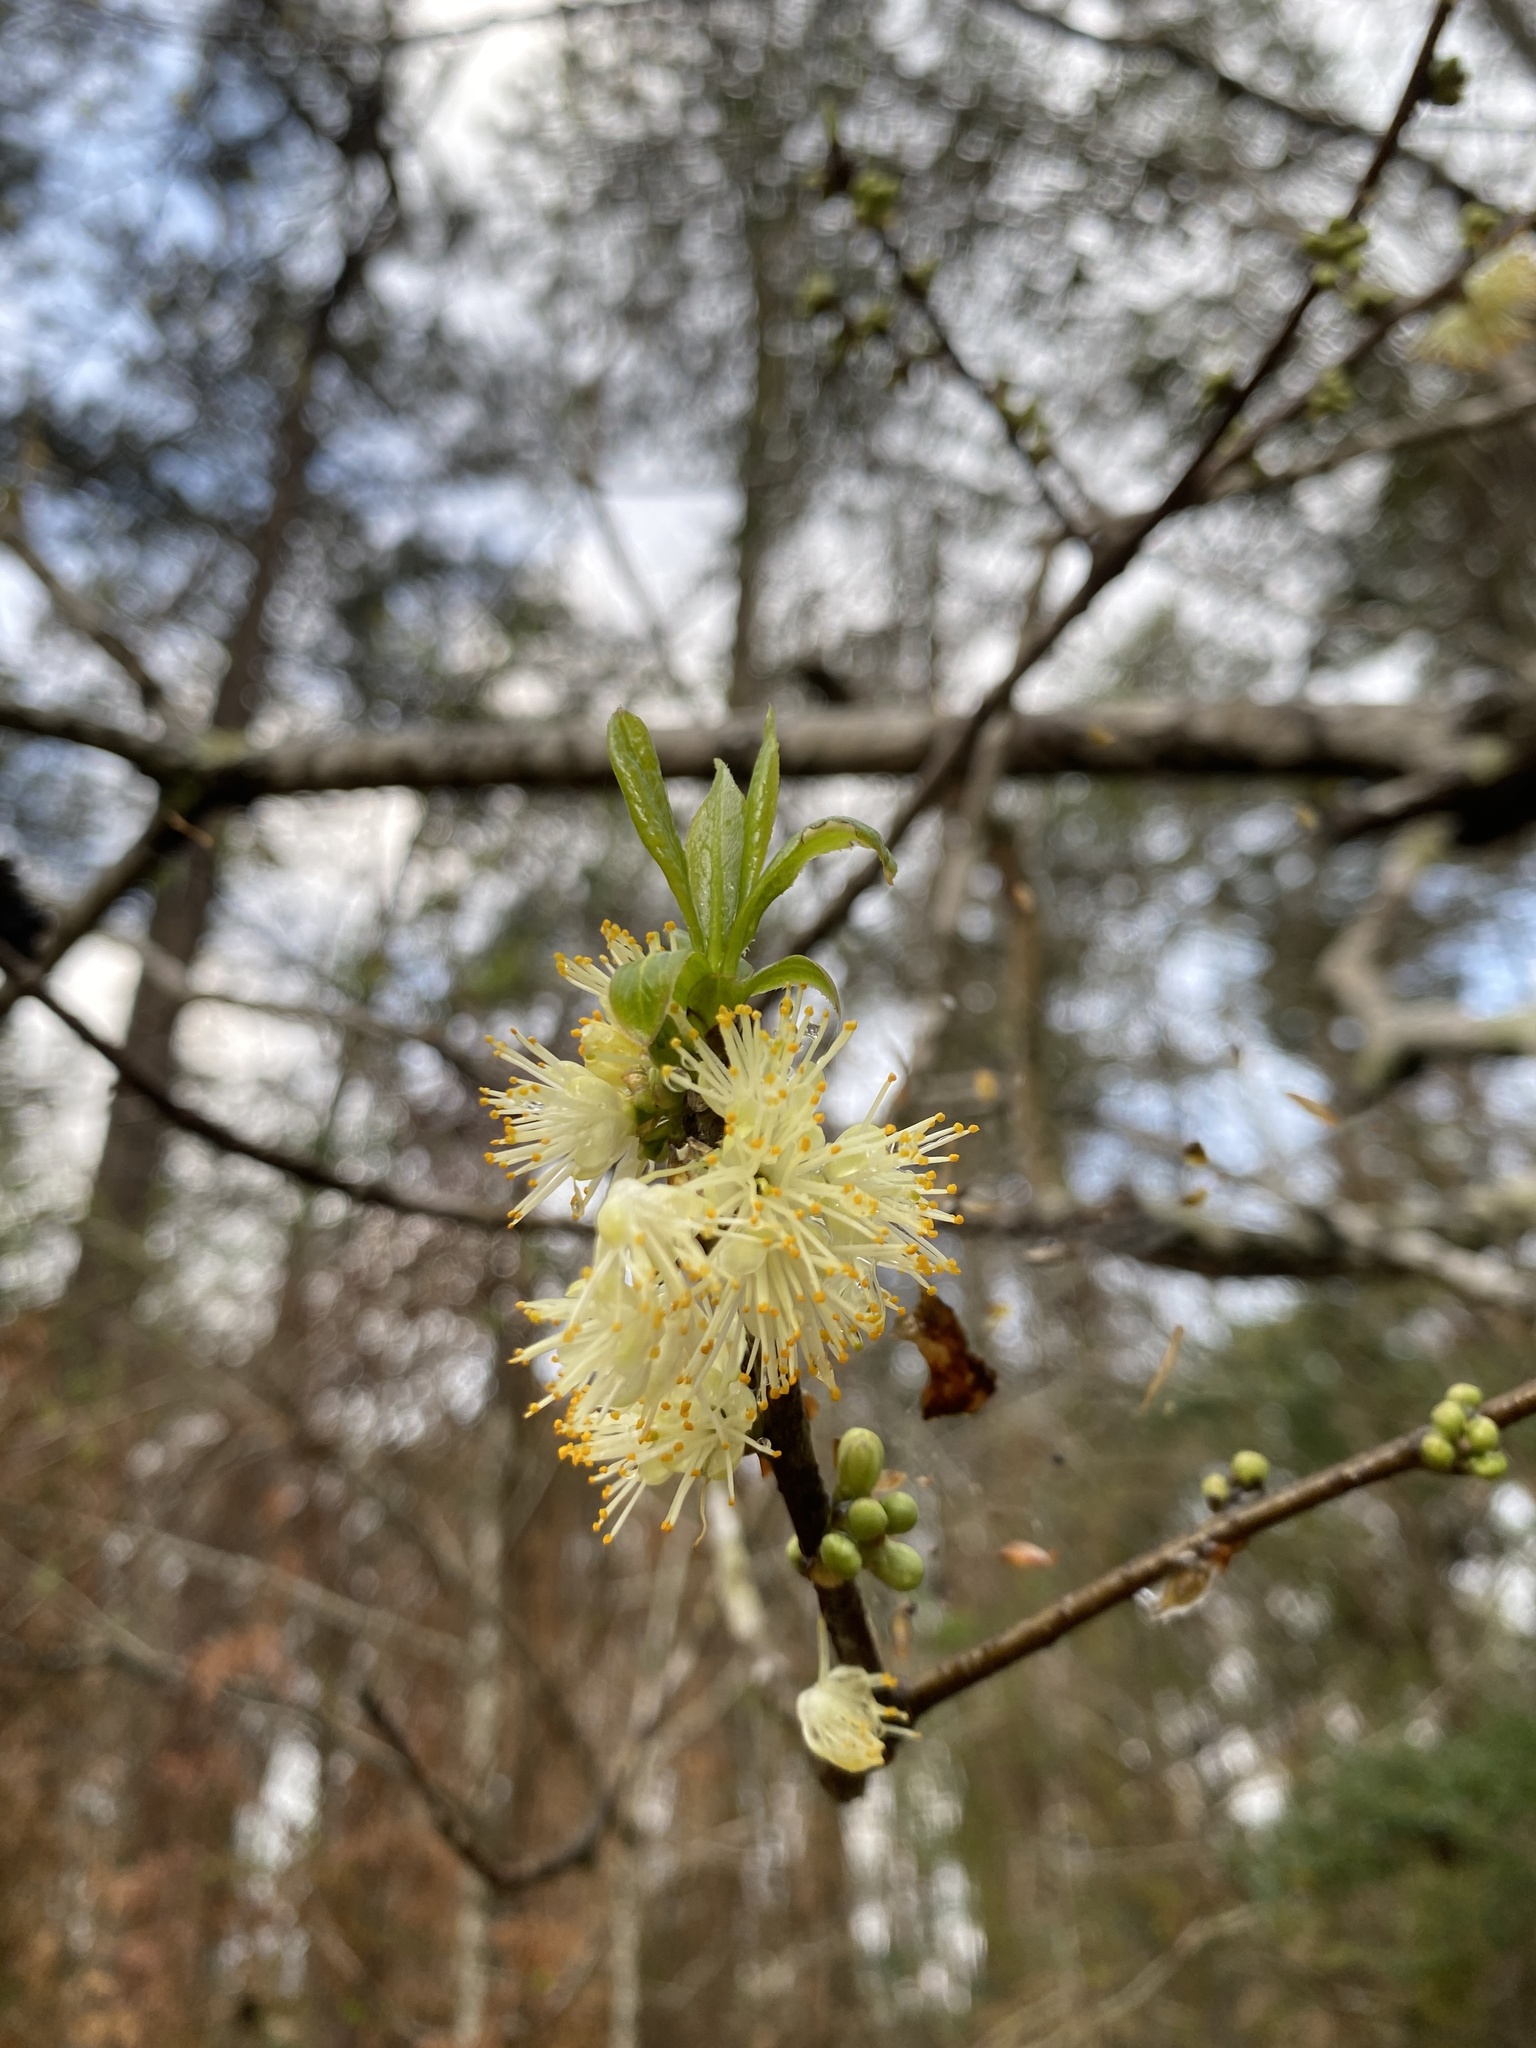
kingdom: Plantae
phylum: Tracheophyta
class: Magnoliopsida
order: Ericales
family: Symplocaceae
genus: Symplocos
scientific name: Symplocos tinctoria
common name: Horse-sugar
